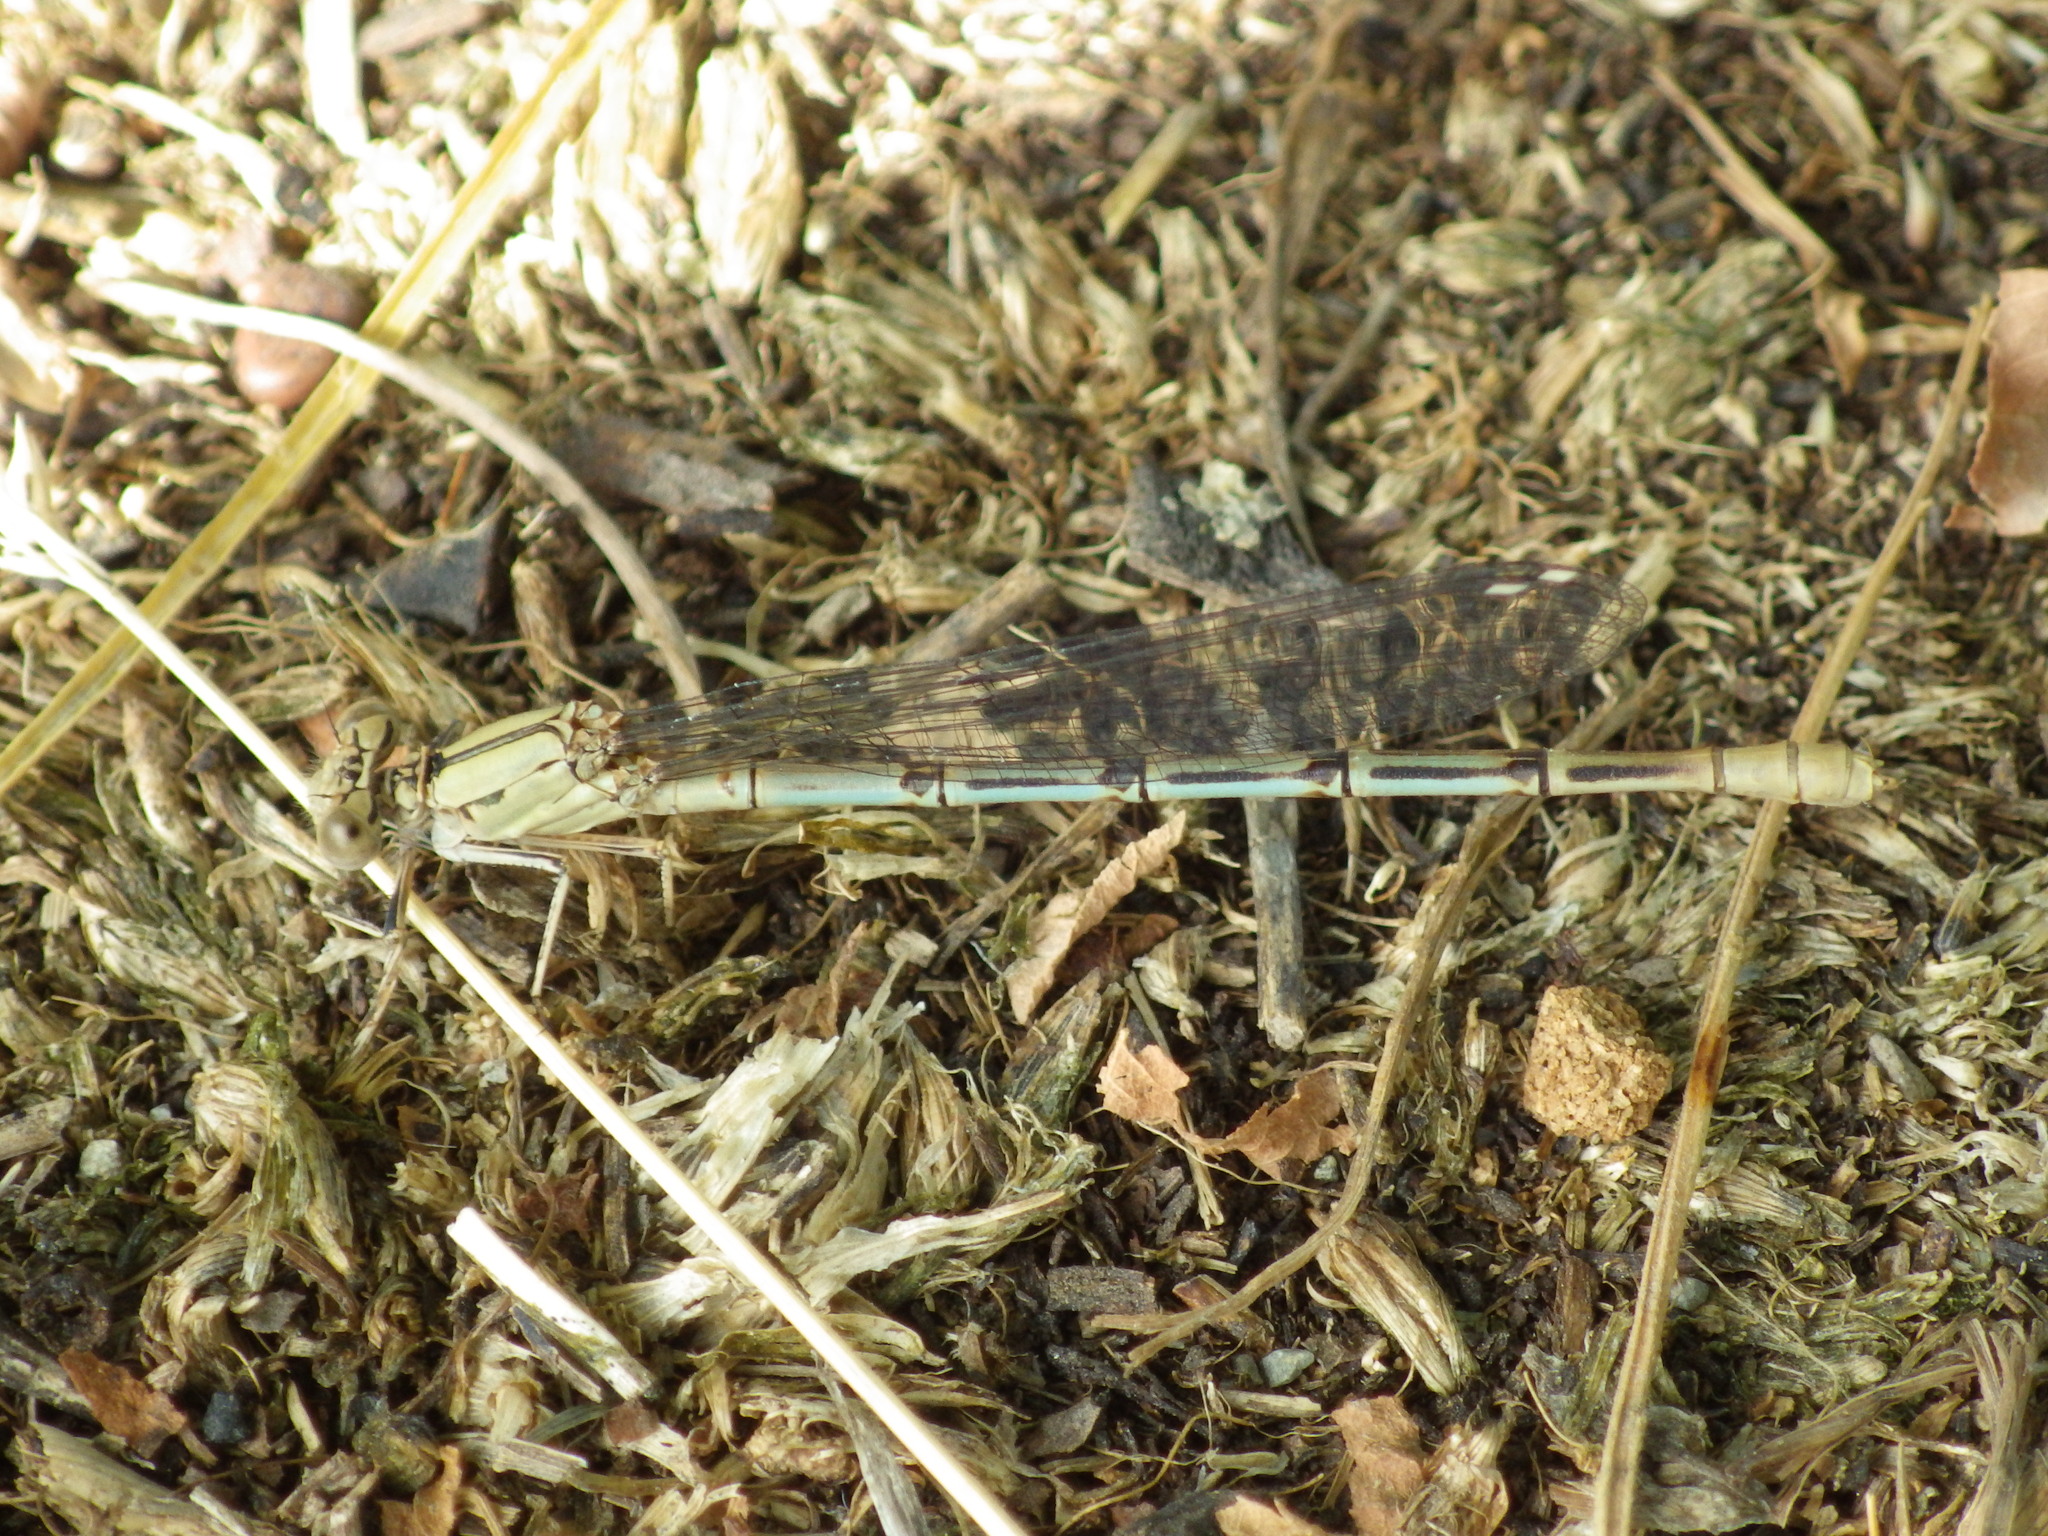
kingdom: Animalia
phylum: Arthropoda
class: Insecta
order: Odonata
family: Coenagrionidae
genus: Argia
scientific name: Argia emma
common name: Emma's dancer
